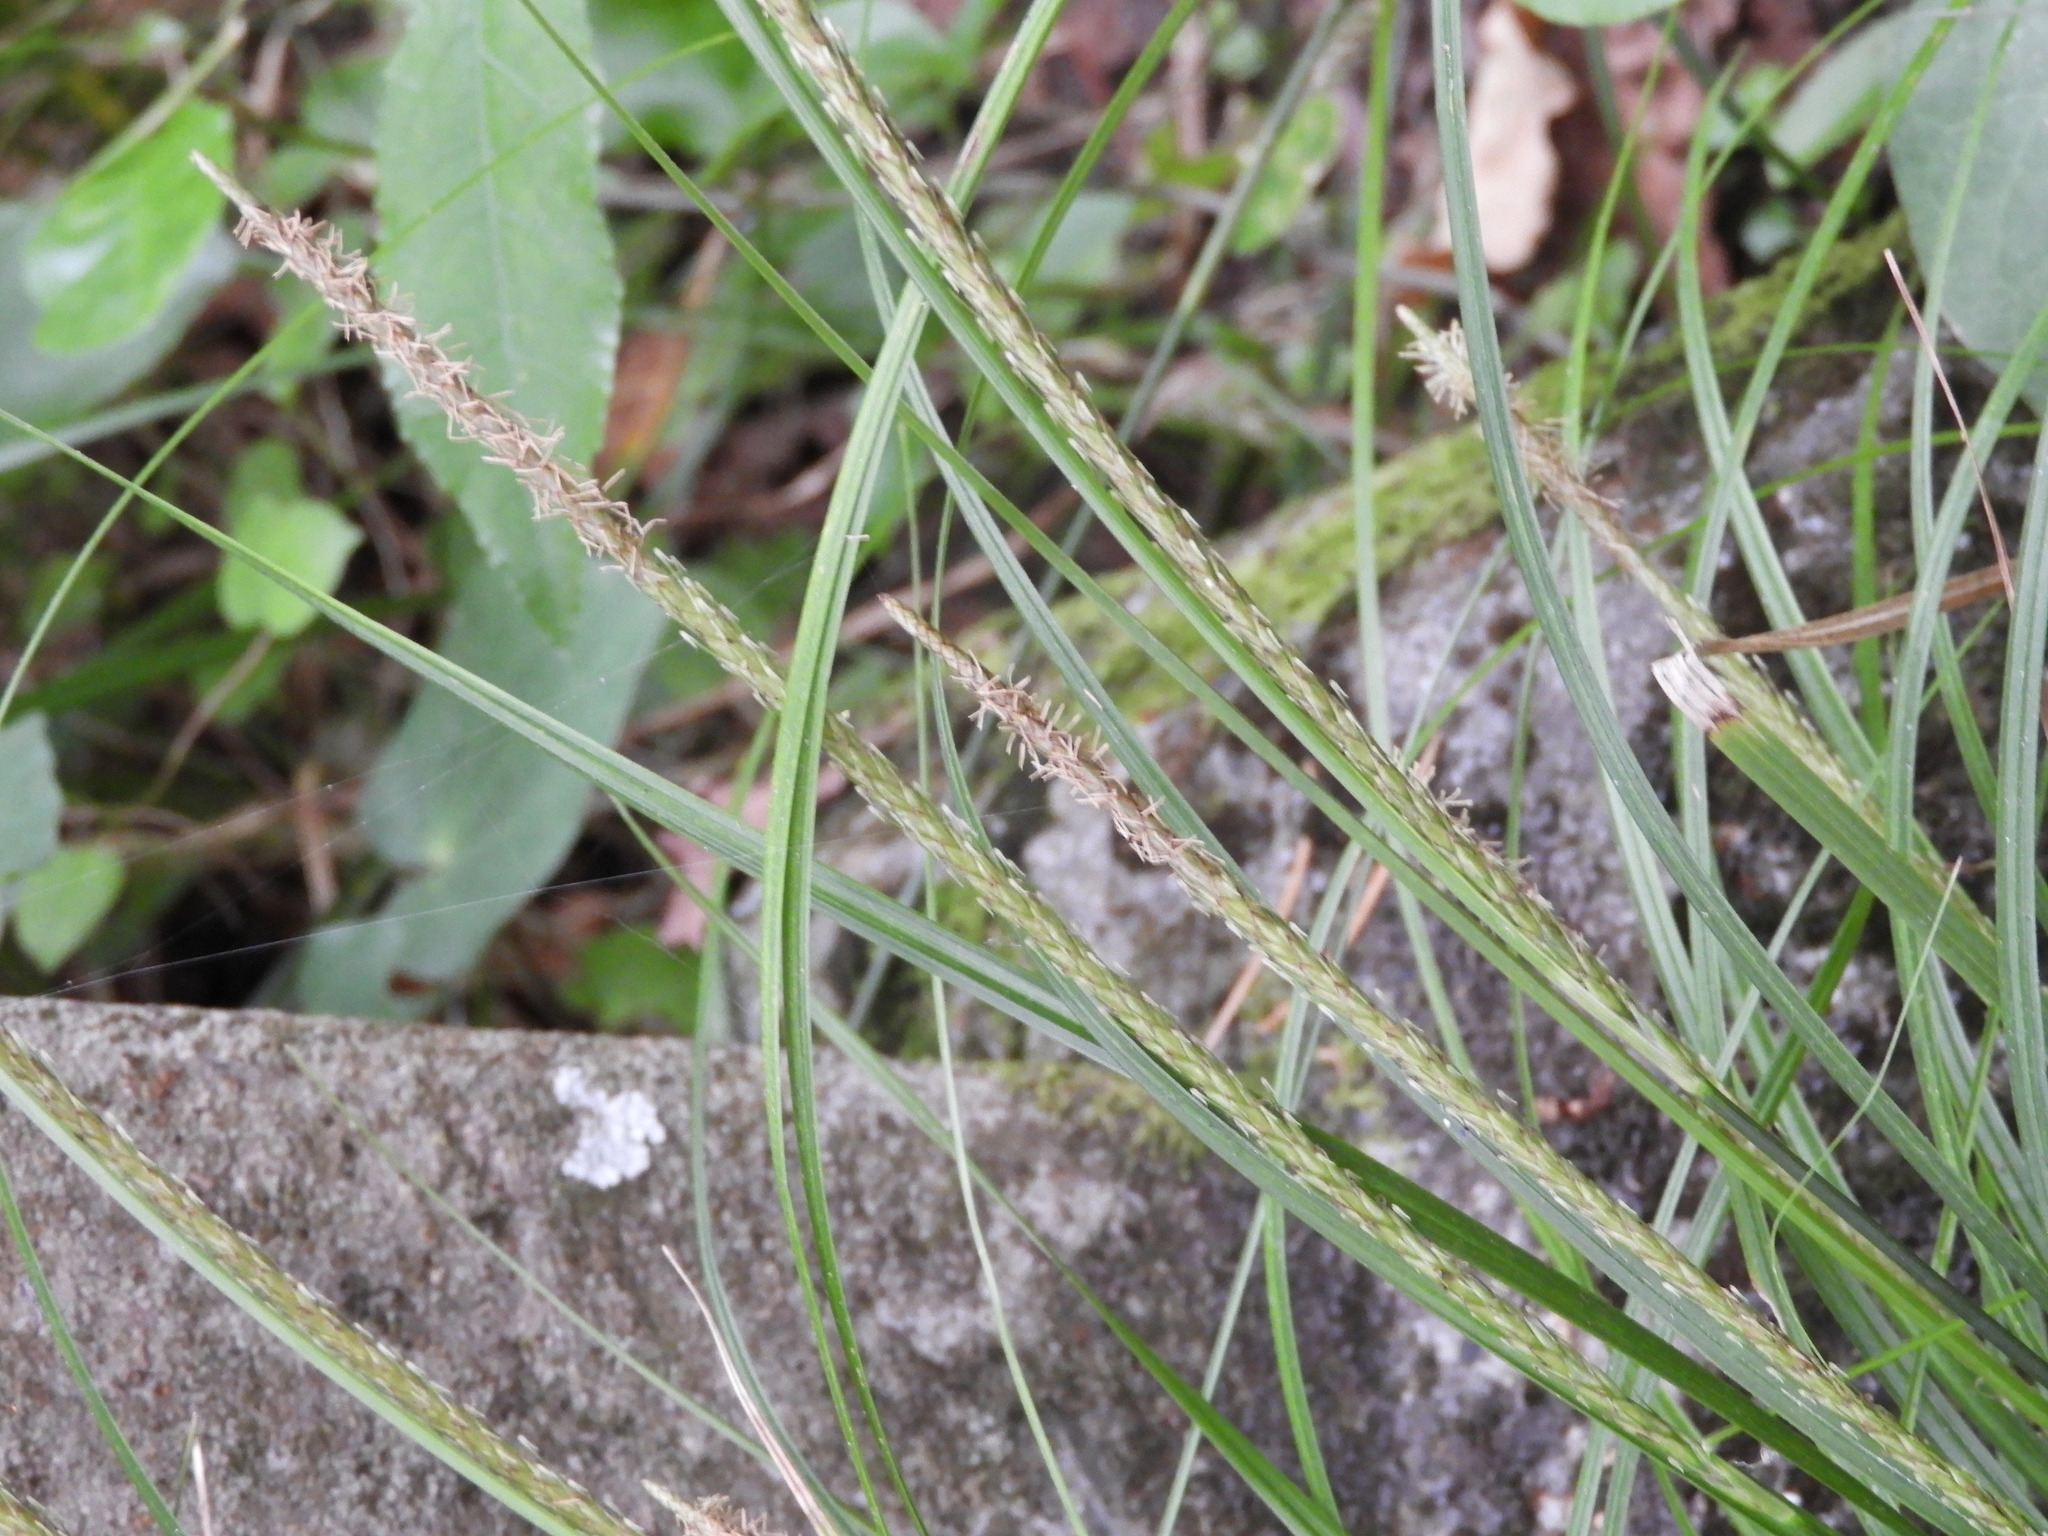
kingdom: Plantae
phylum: Tracheophyta
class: Liliopsida
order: Poales
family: Cyperaceae
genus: Carex
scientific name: Carex uncinata
